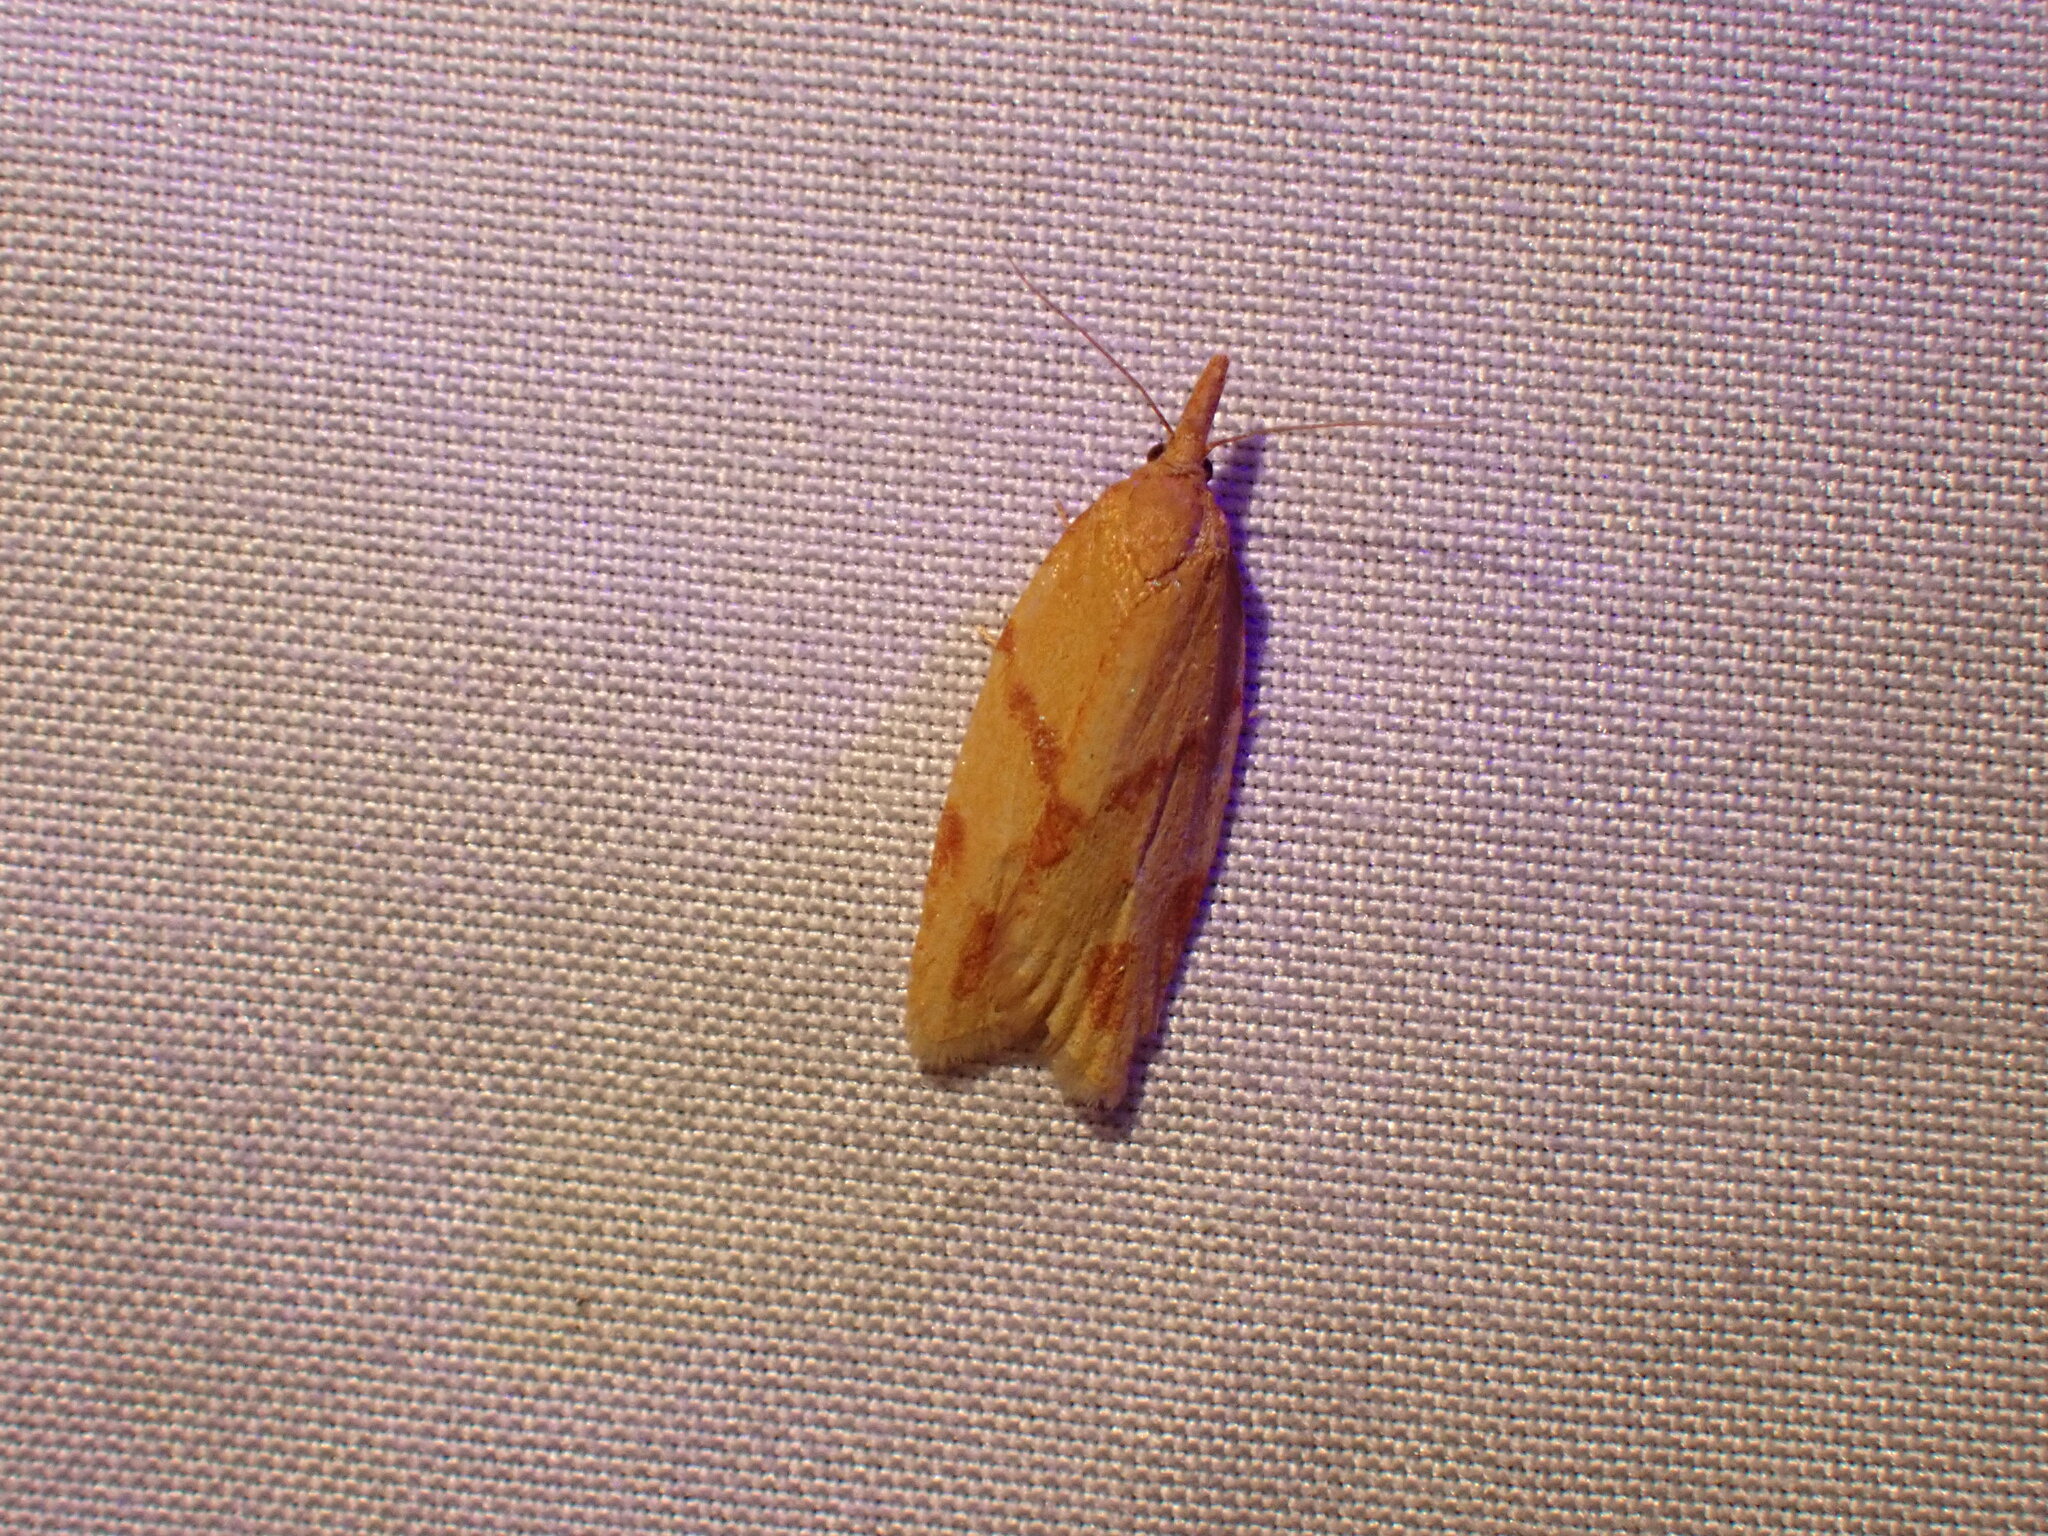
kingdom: Animalia
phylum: Arthropoda
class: Insecta
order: Lepidoptera
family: Tortricidae
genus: Sparganothis
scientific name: Sparganothis unifasciana
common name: One-lined sparganothis moth
